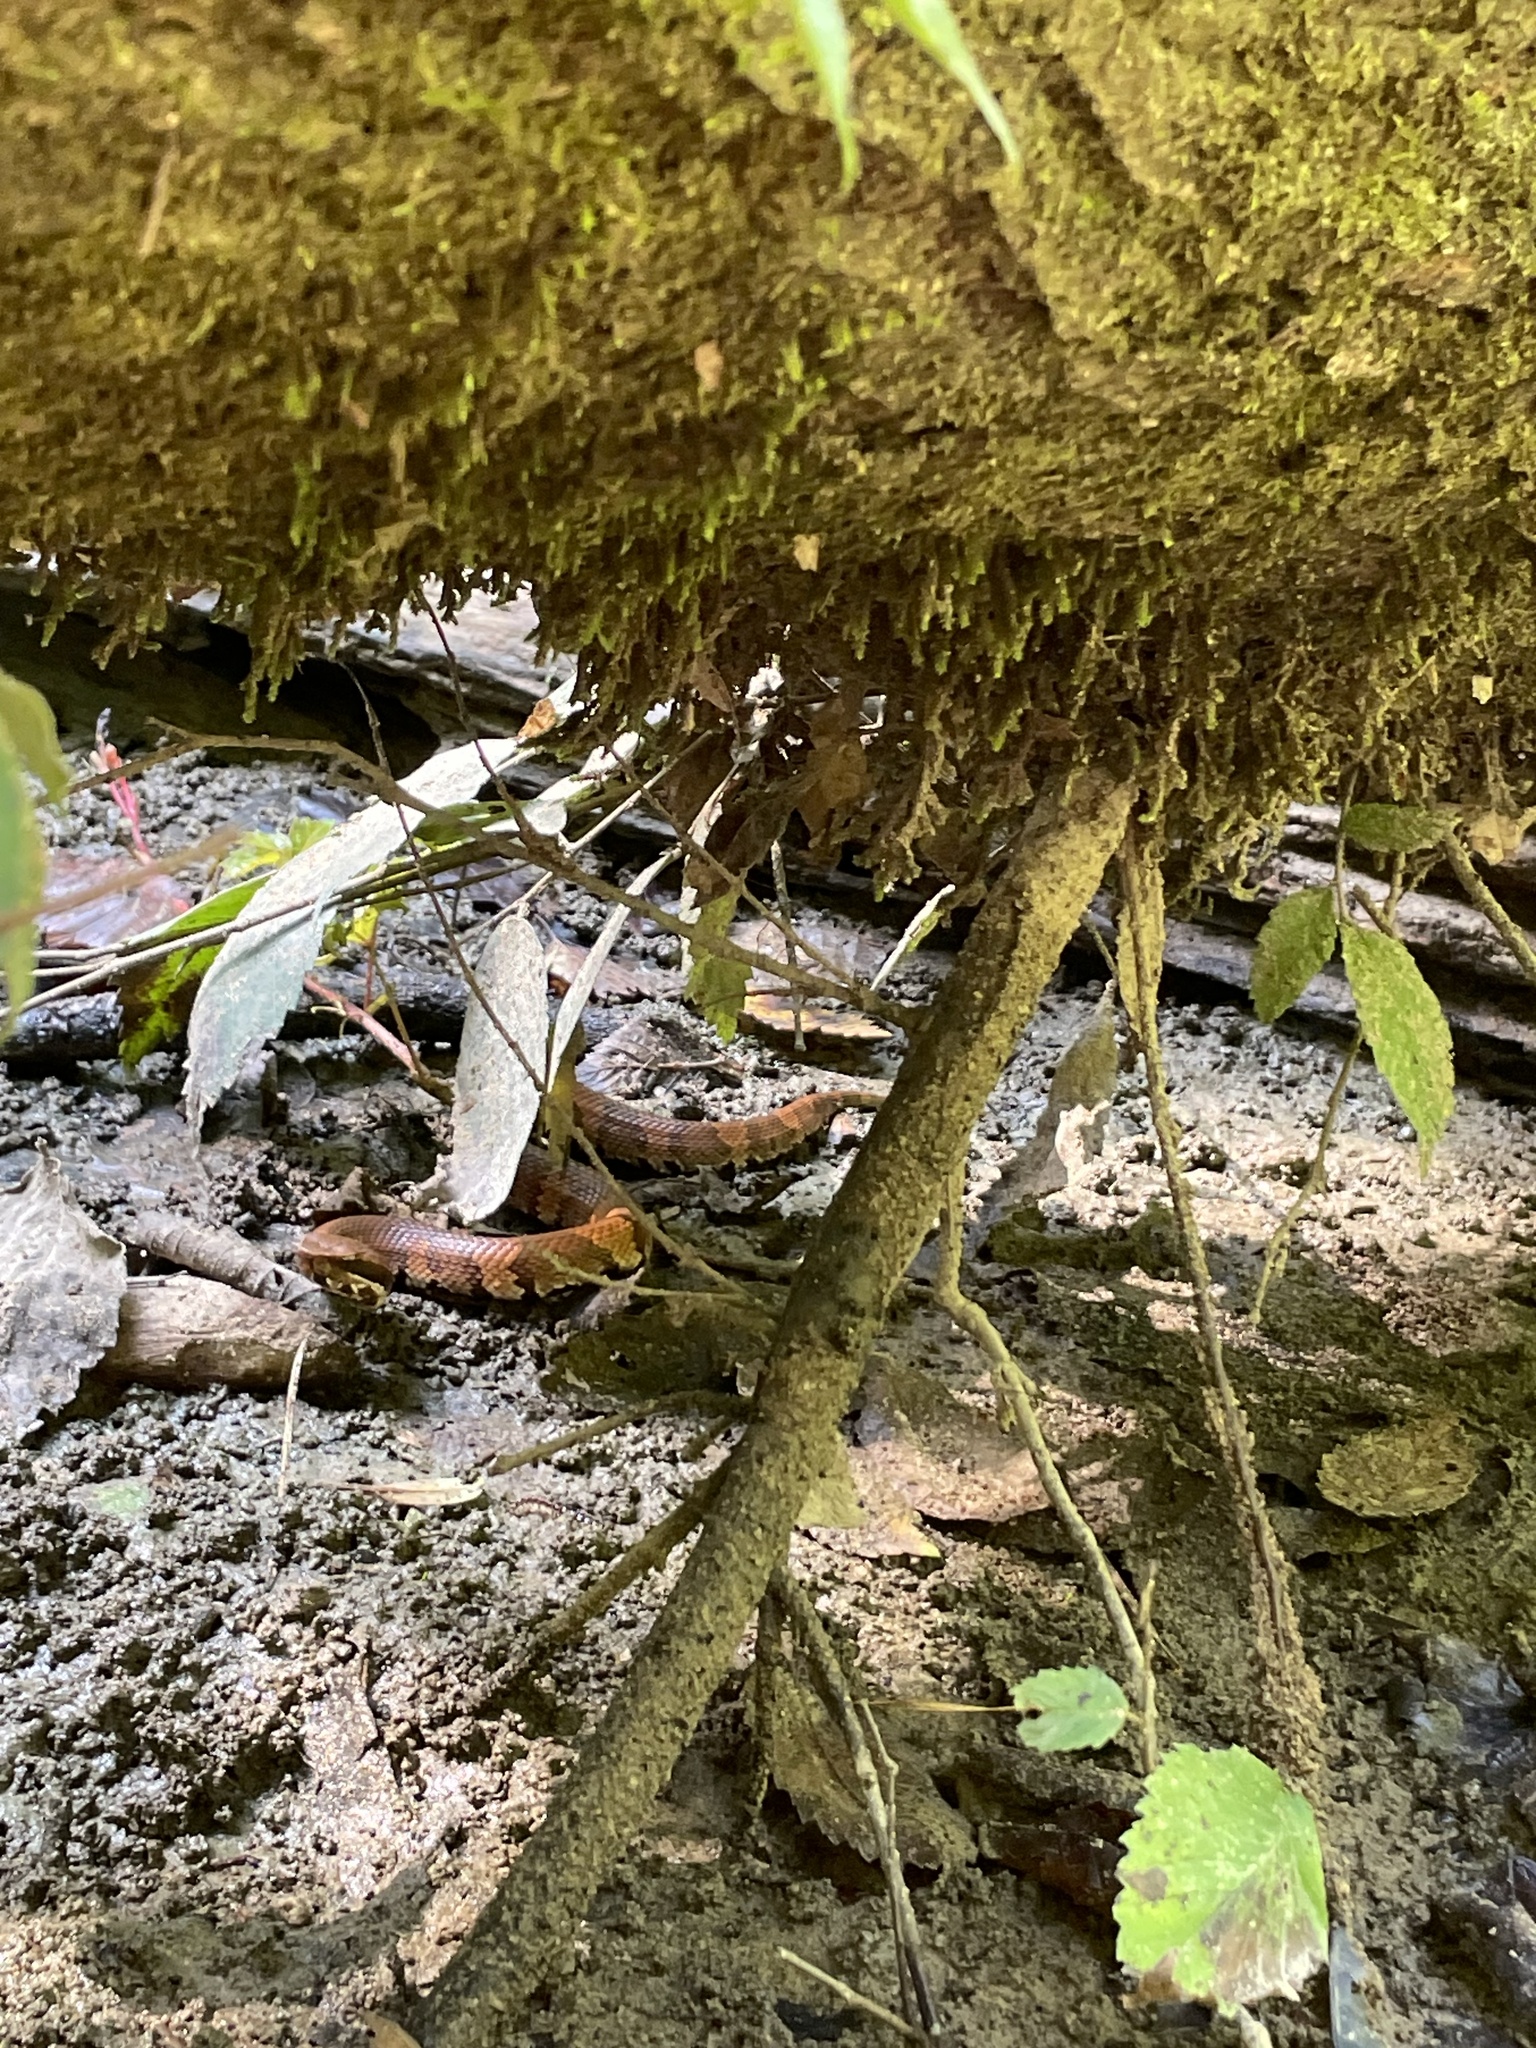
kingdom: Animalia
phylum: Chordata
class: Squamata
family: Viperidae
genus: Agkistrodon
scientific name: Agkistrodon piscivorus
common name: Cottonmouth
